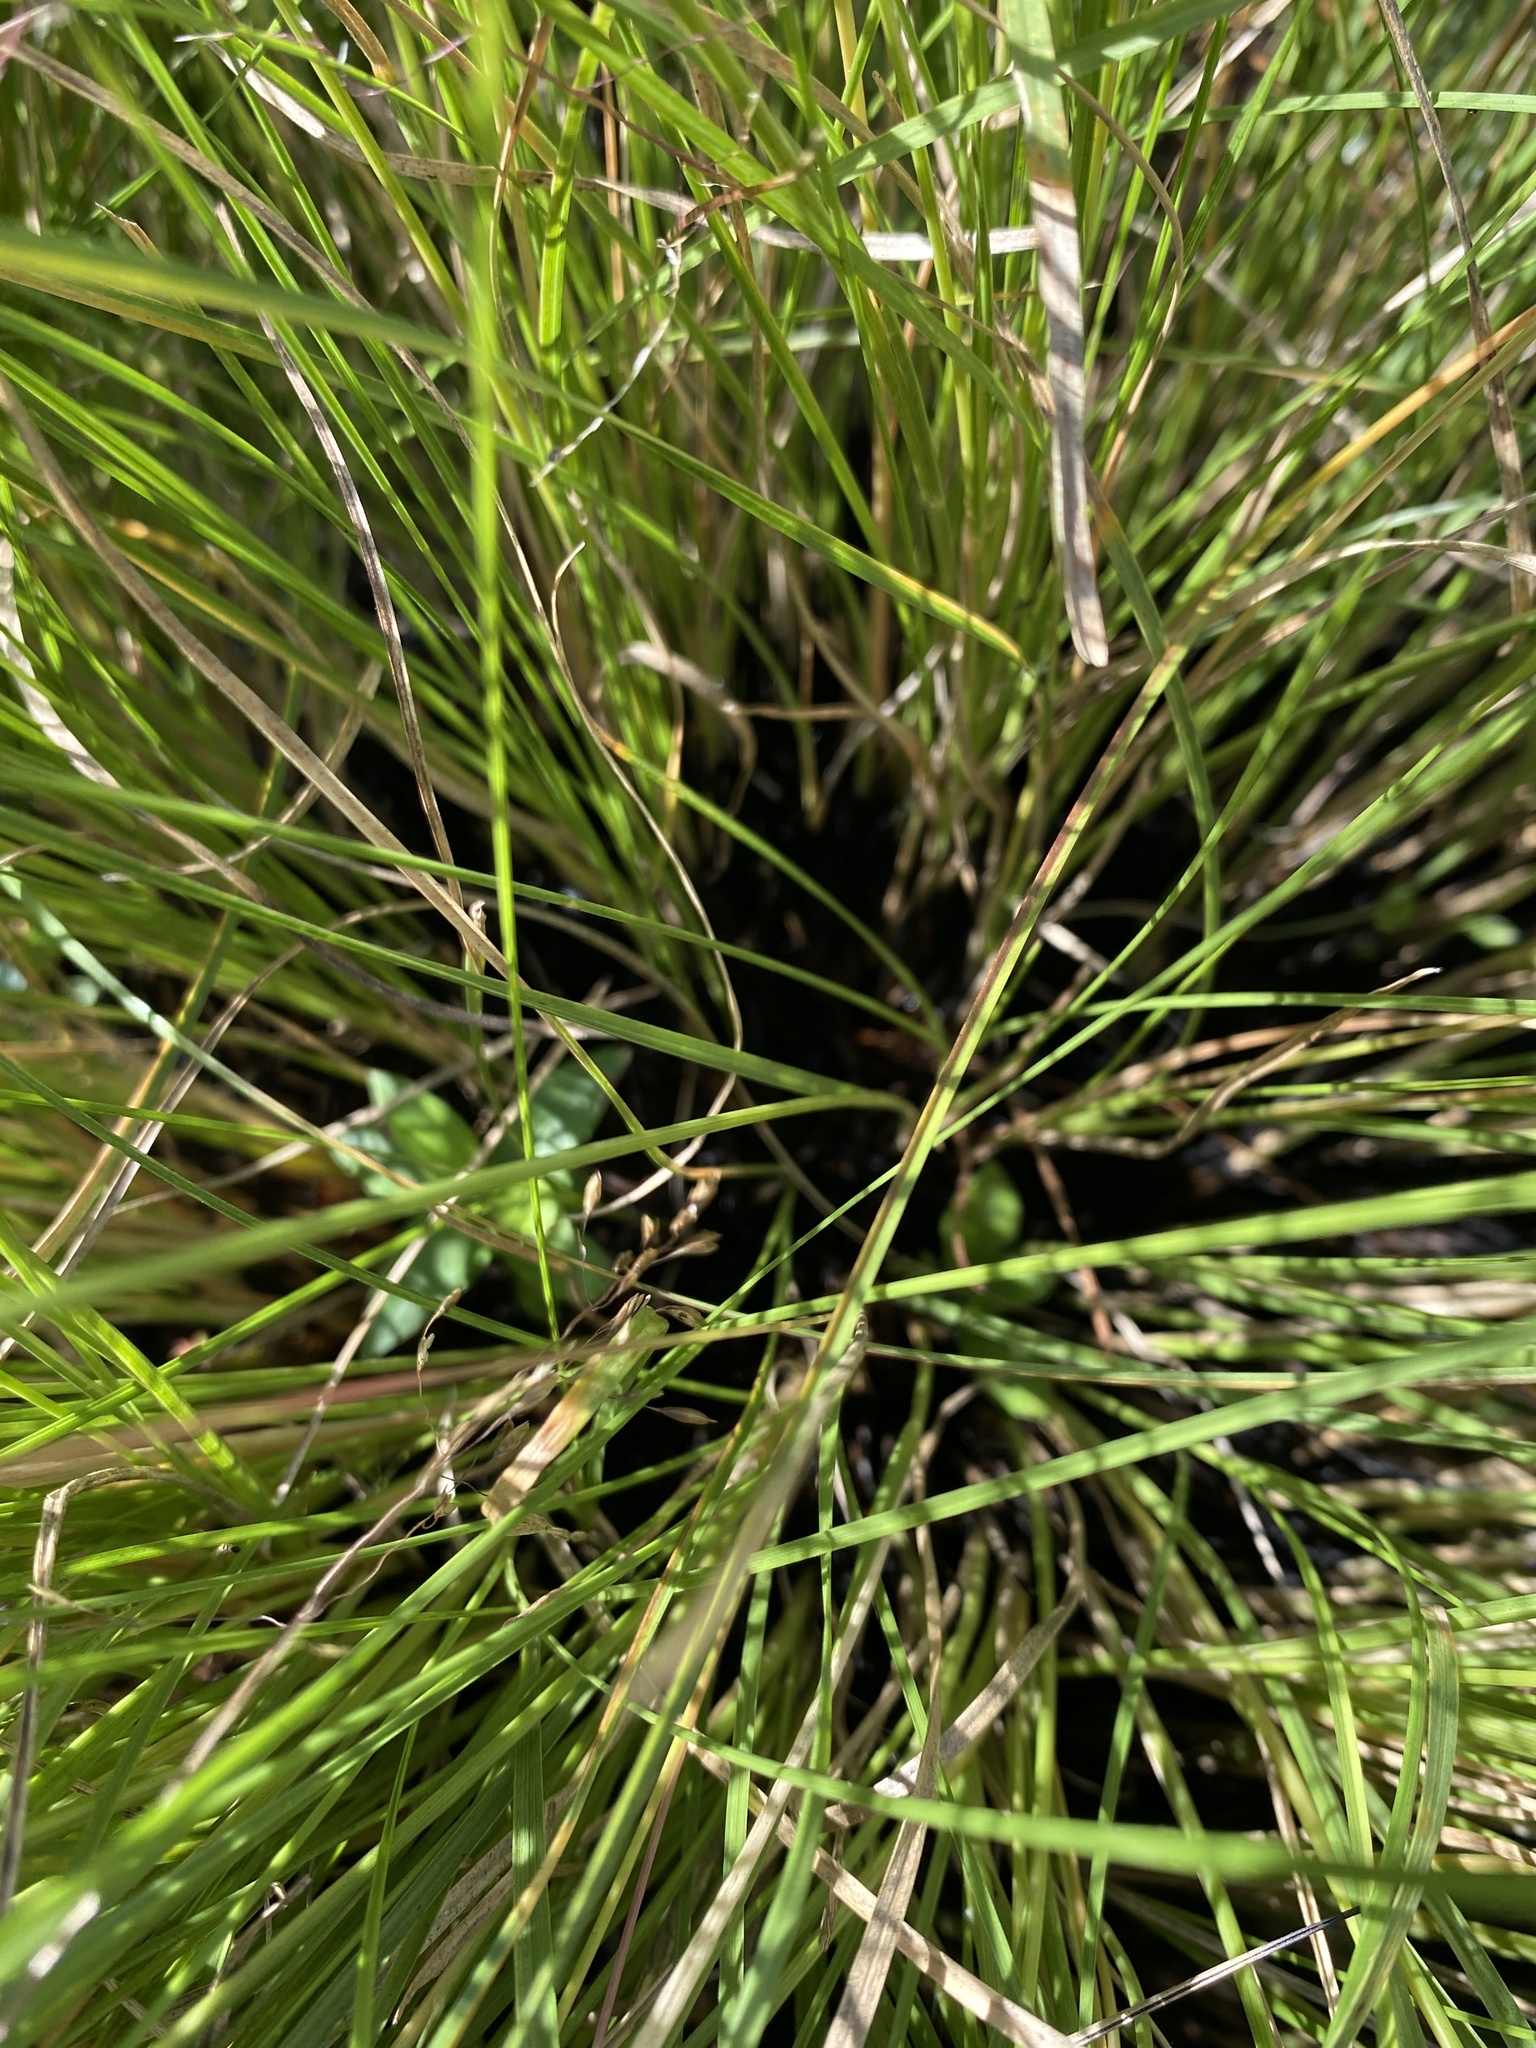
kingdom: Plantae
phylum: Tracheophyta
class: Liliopsida
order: Poales
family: Poaceae
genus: Sporobolus
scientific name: Sporobolus pinetorum
